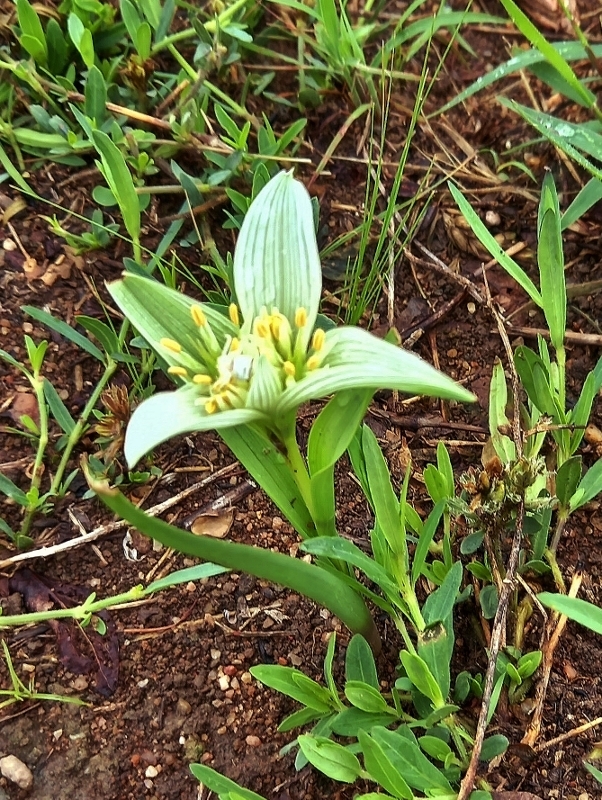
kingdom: Plantae
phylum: Tracheophyta
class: Liliopsida
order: Liliales
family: Colchicaceae
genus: Colchicum
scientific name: Colchicum striatum
